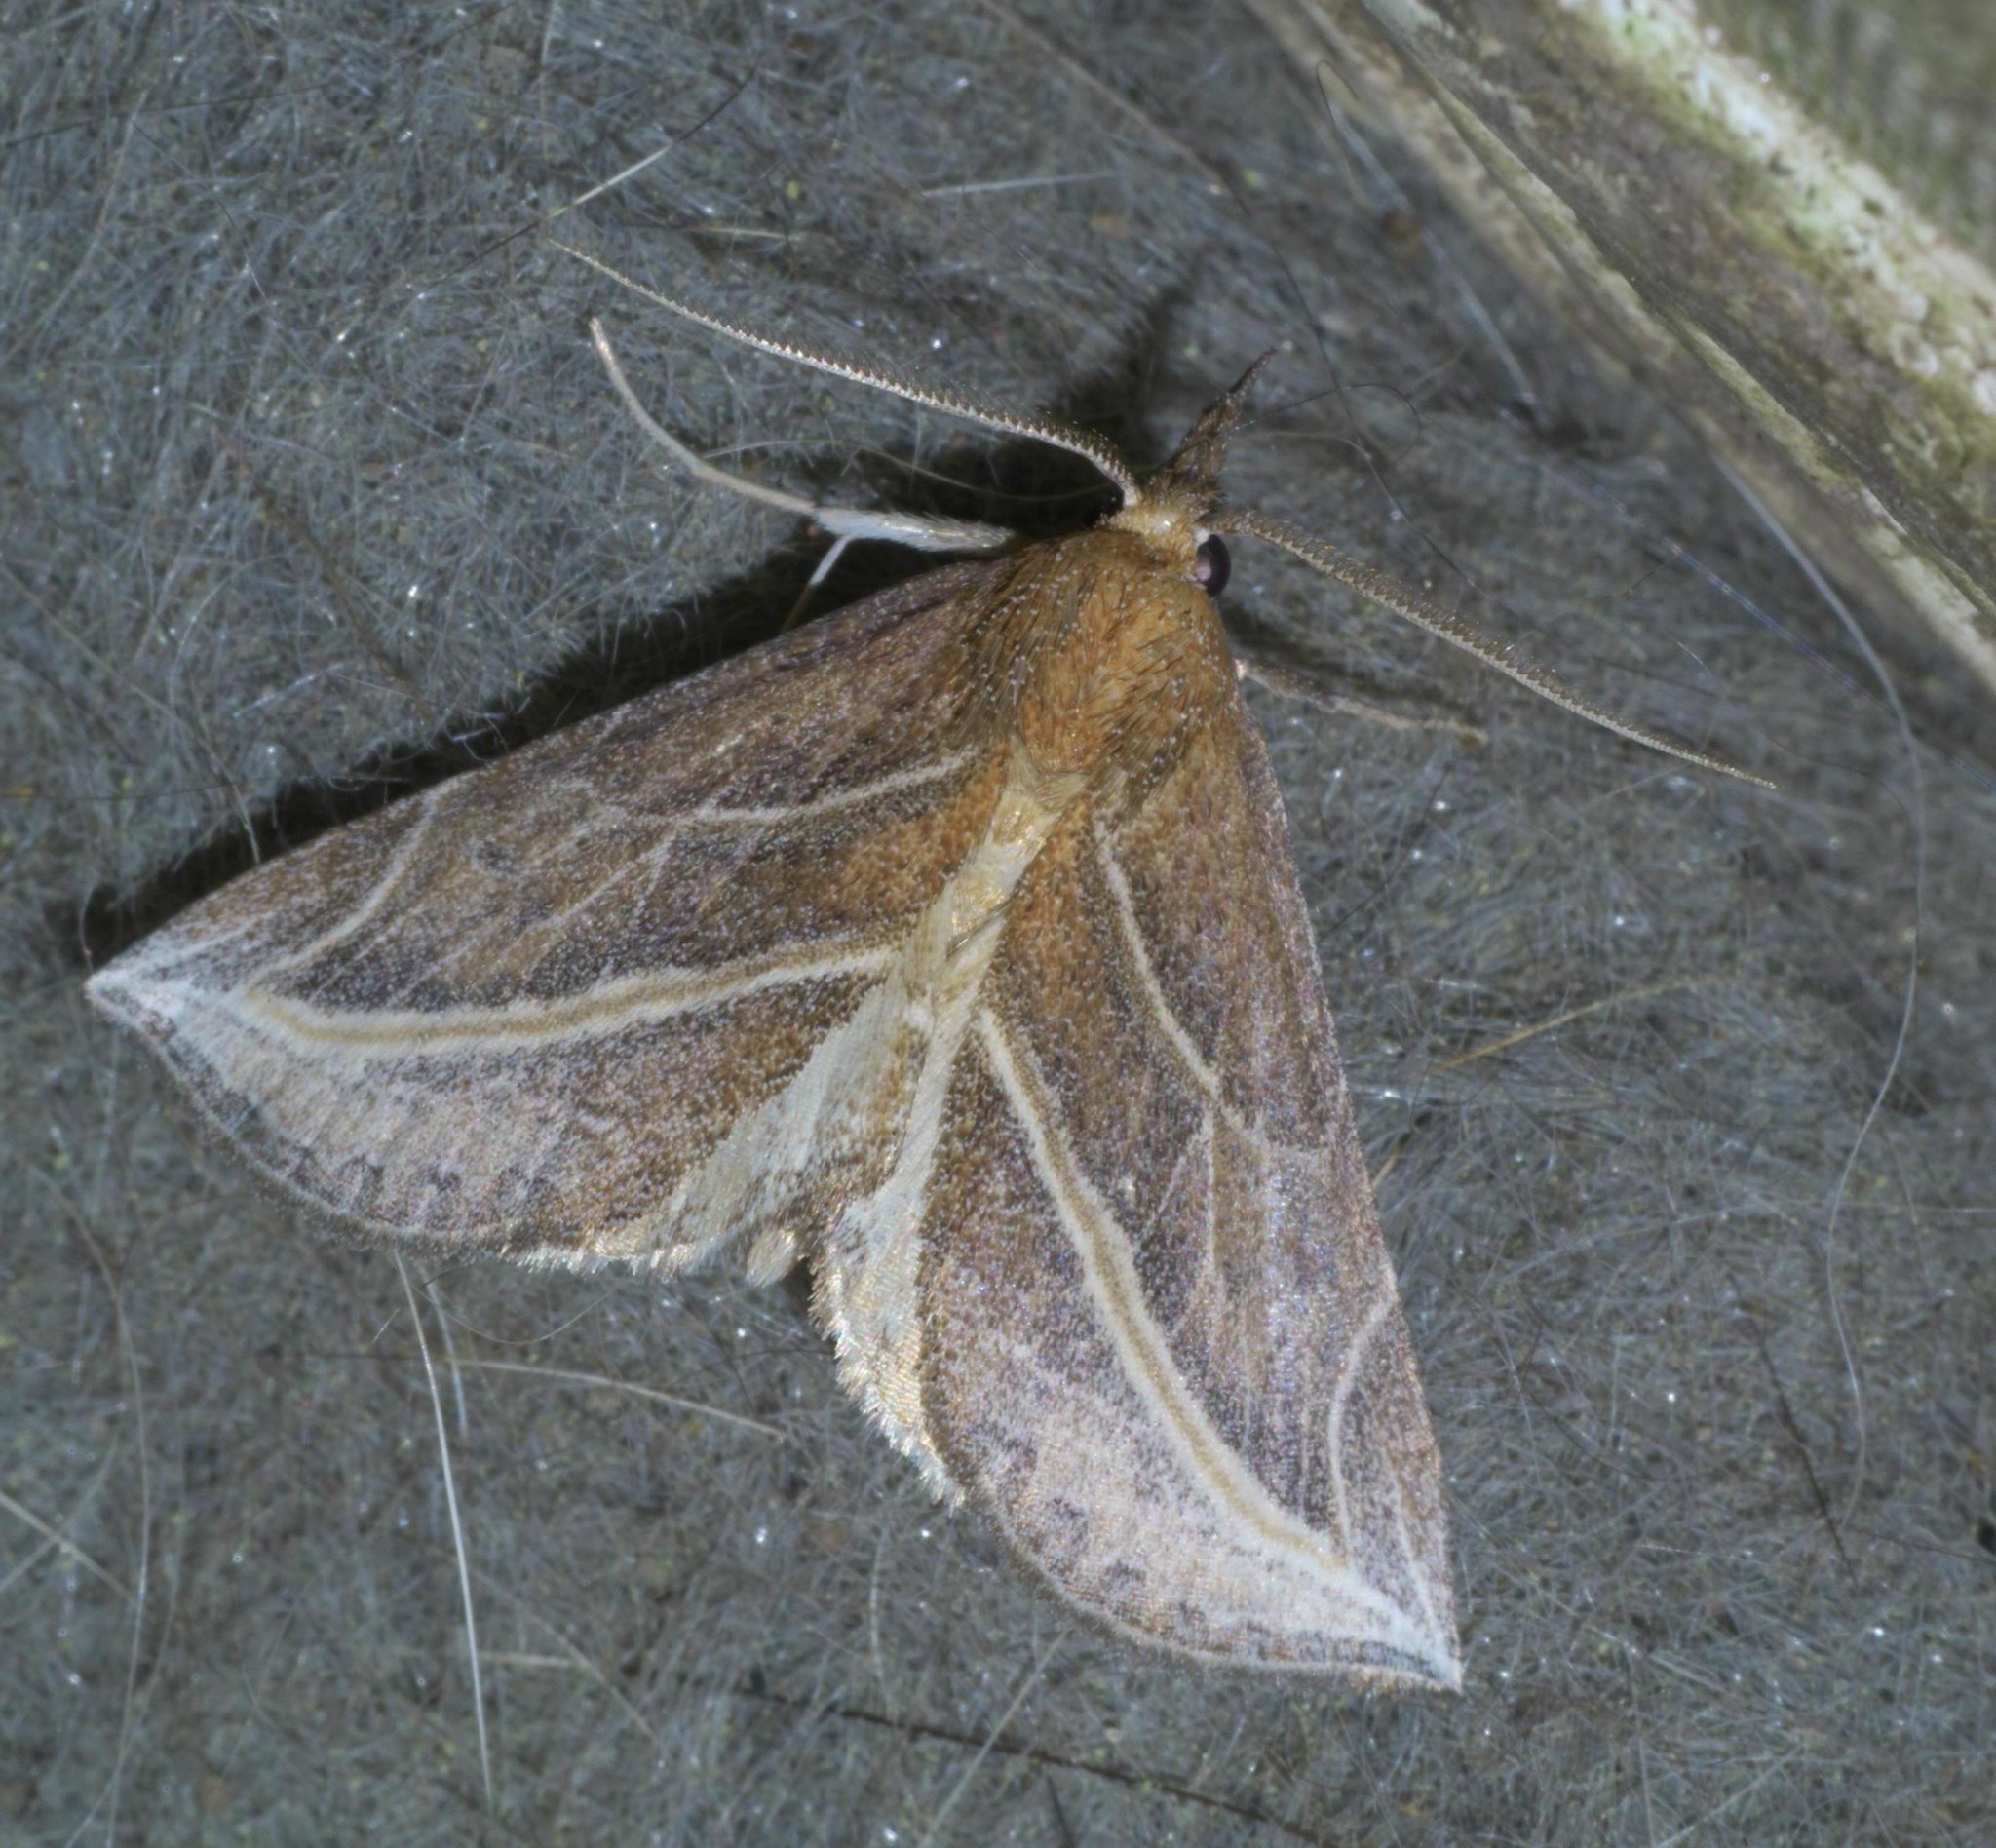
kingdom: Animalia
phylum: Arthropoda
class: Insecta
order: Lepidoptera
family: Erebidae
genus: Phyprosopus
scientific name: Phyprosopus callitrichoides
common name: Curved-lined owlet
